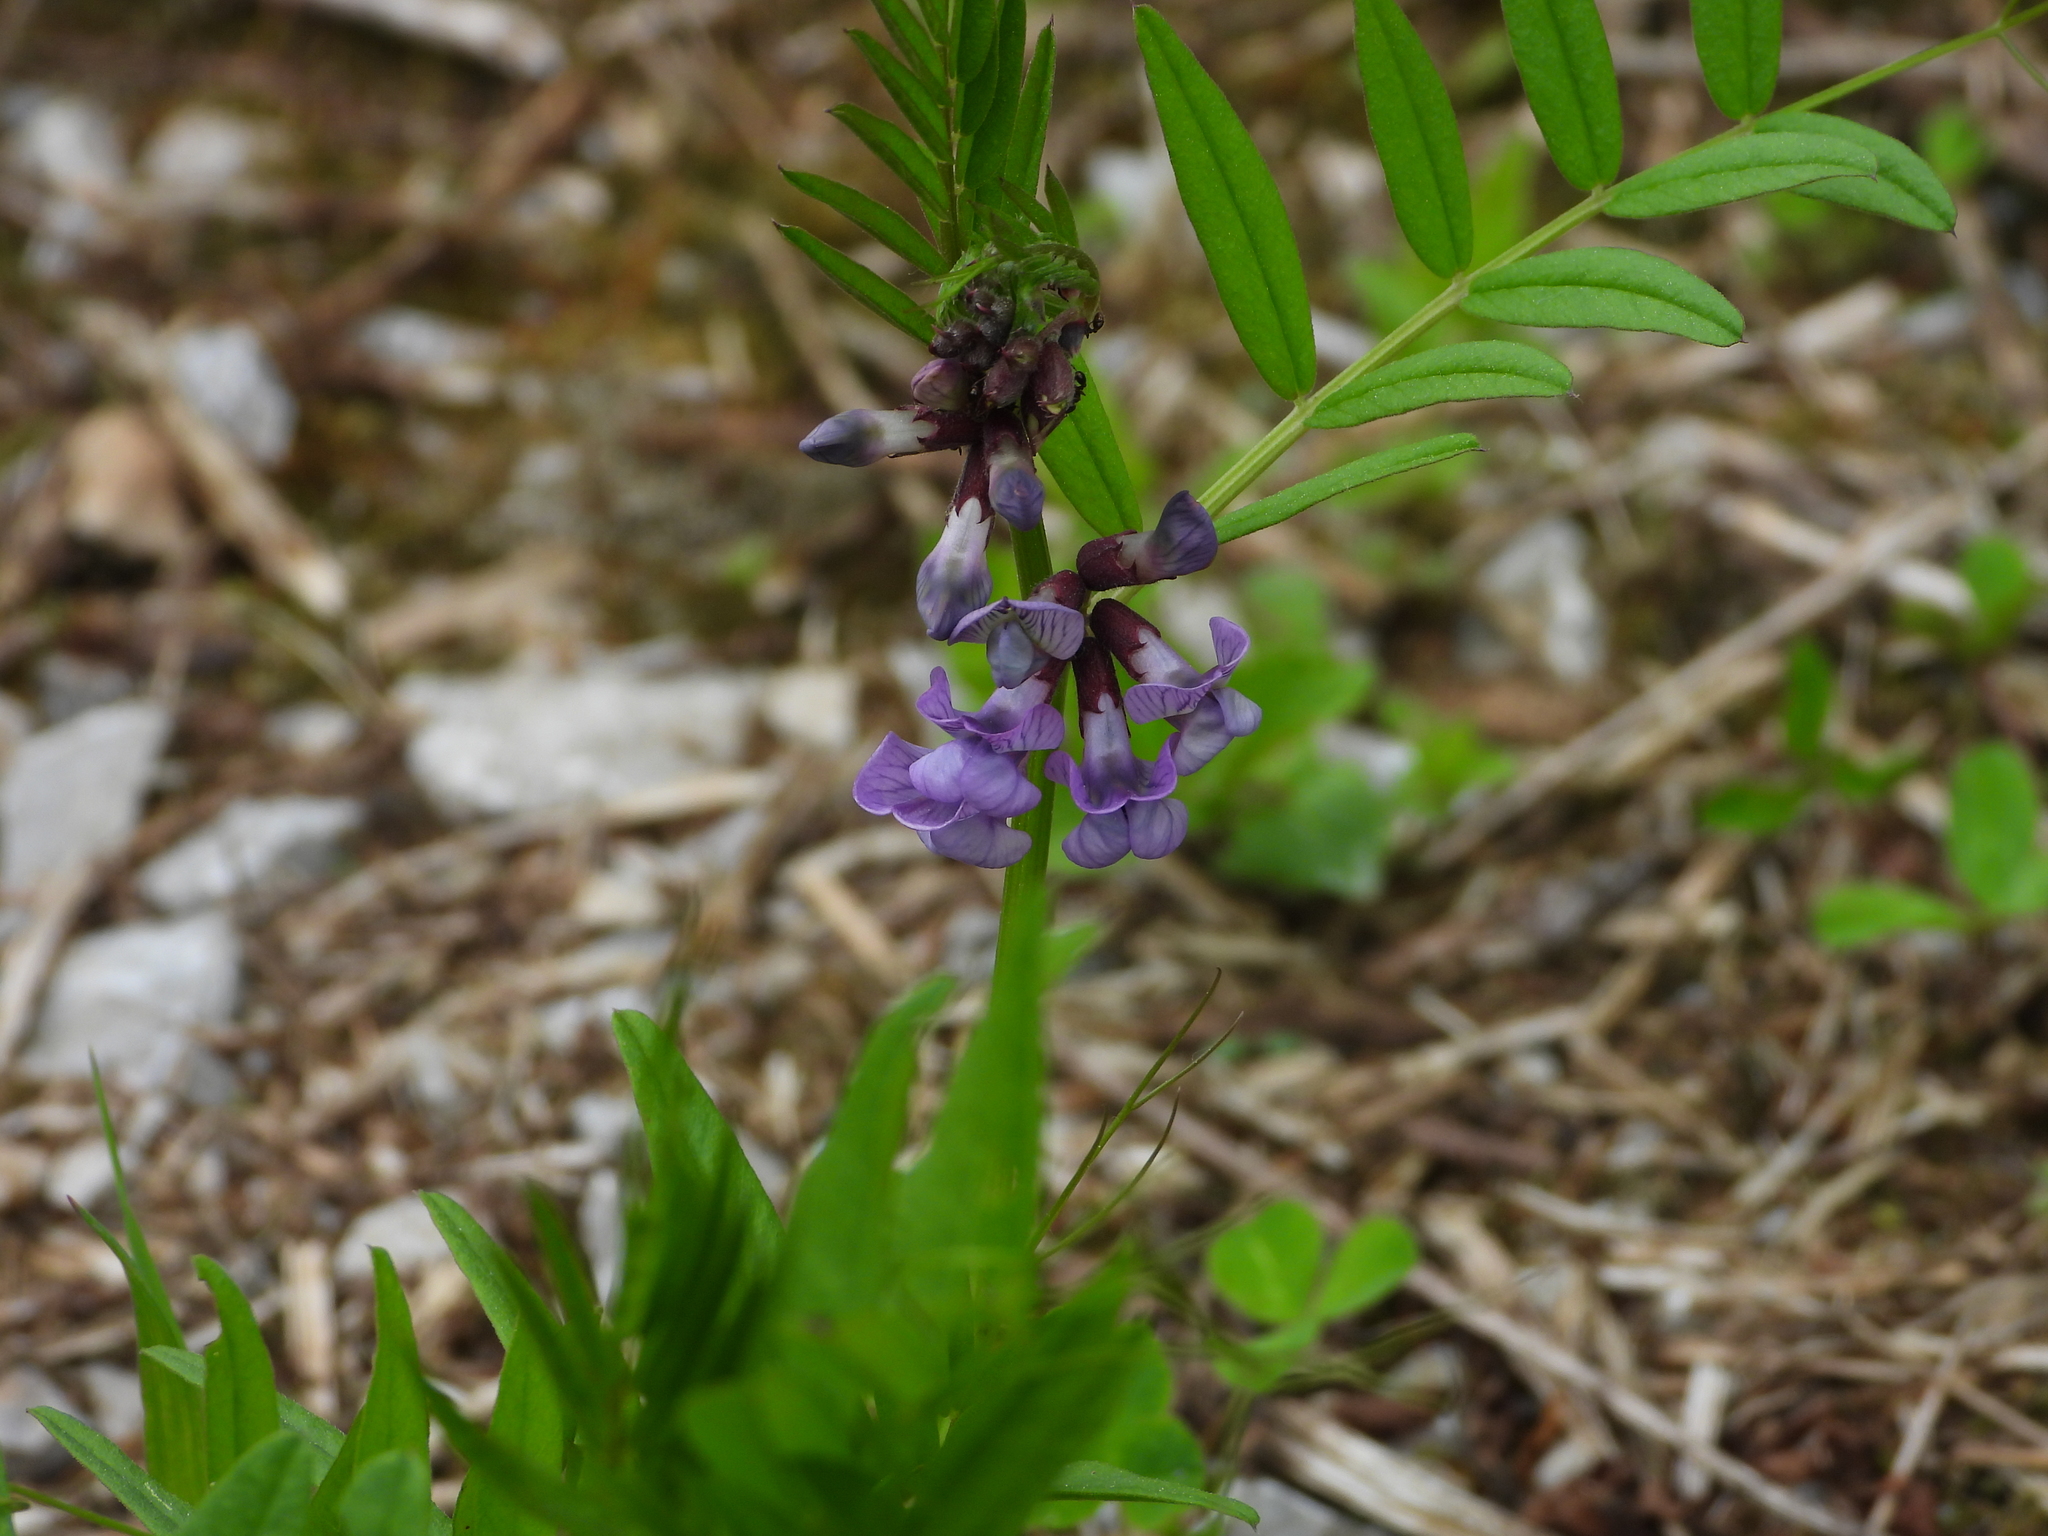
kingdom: Plantae
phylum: Tracheophyta
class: Magnoliopsida
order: Fabales
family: Fabaceae
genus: Vicia
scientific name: Vicia sepium
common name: Bush vetch
